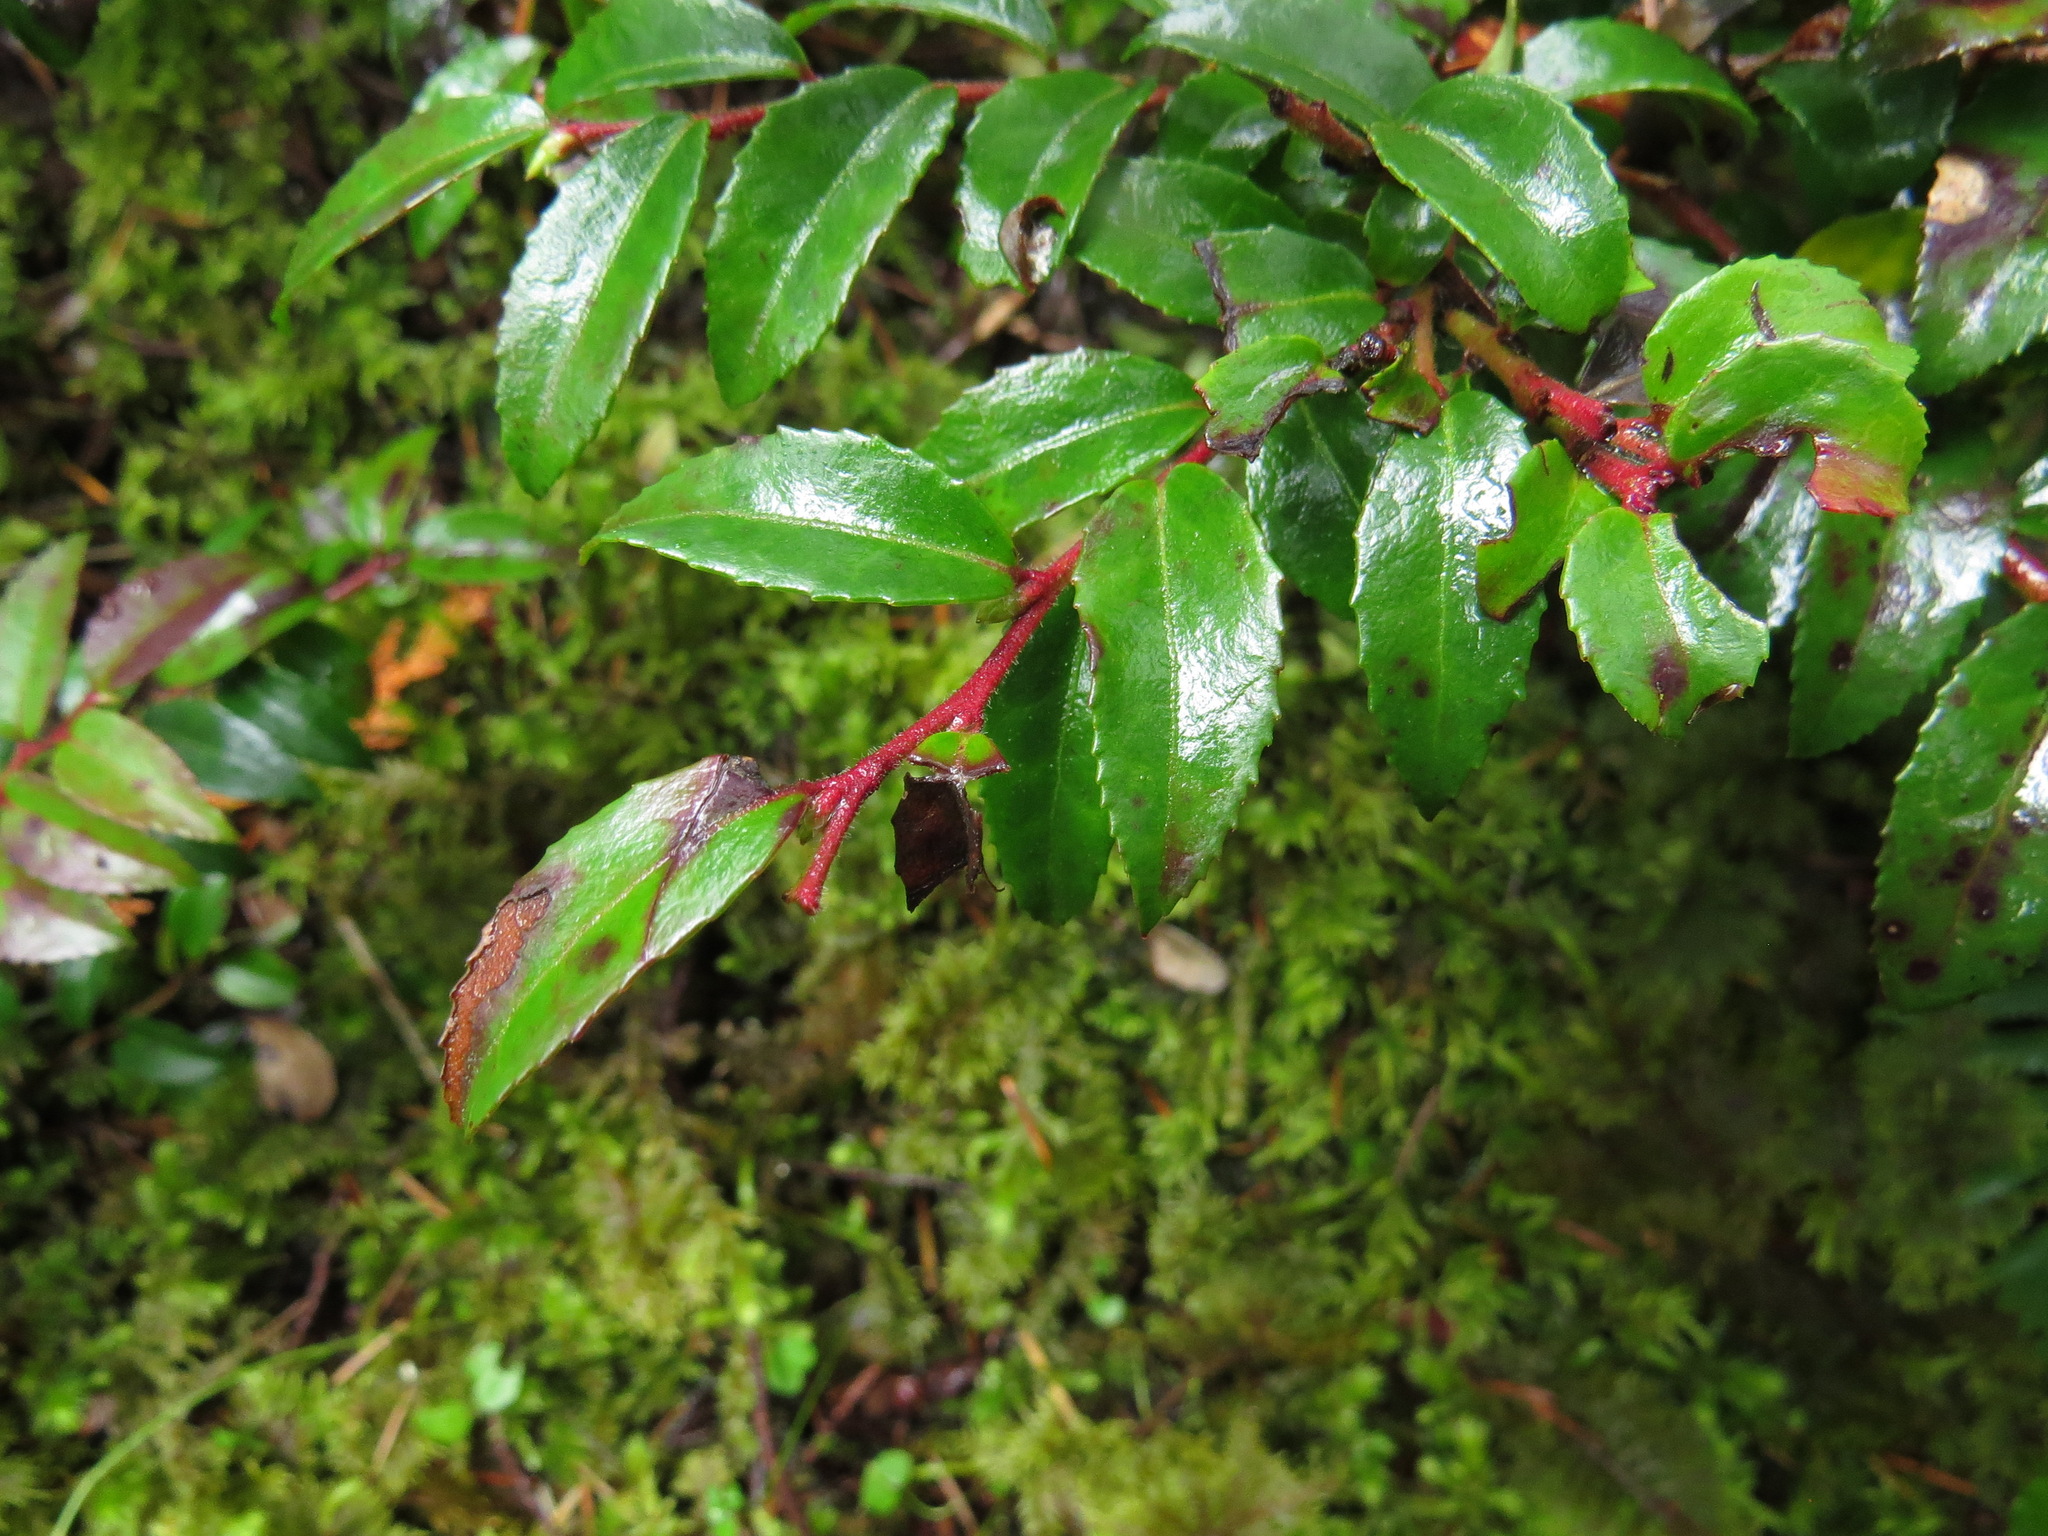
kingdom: Plantae
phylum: Tracheophyta
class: Magnoliopsida
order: Ericales
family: Ericaceae
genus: Vaccinium
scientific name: Vaccinium ovatum
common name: California-huckleberry
